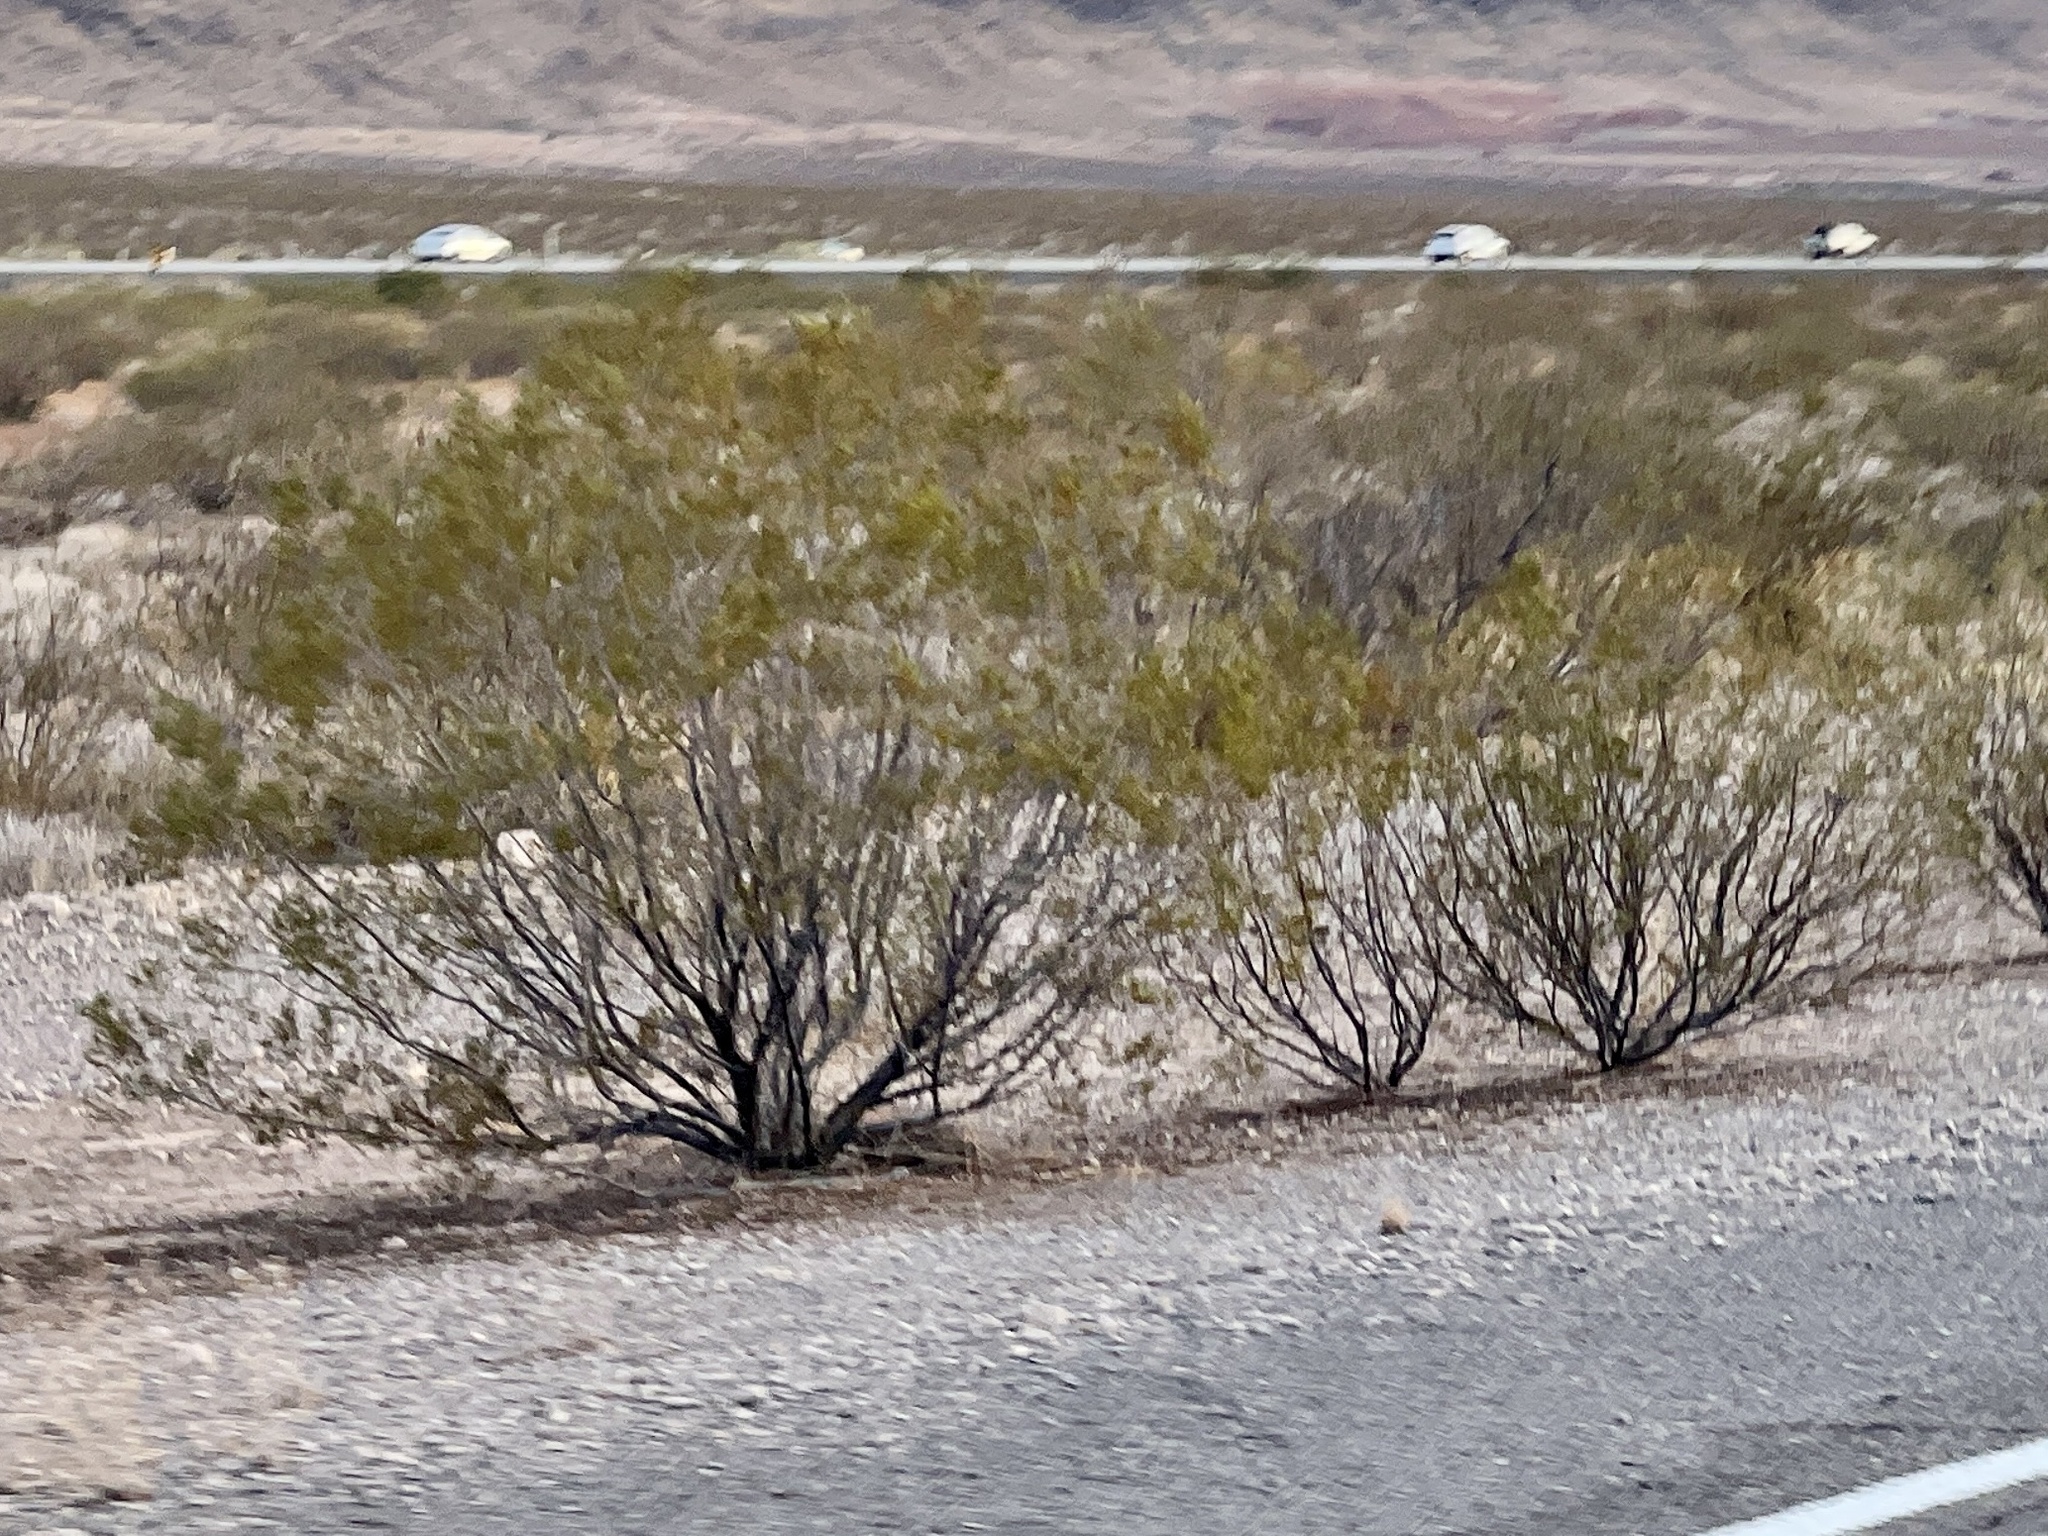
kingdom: Plantae
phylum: Tracheophyta
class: Magnoliopsida
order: Zygophyllales
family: Zygophyllaceae
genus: Larrea
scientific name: Larrea tridentata
